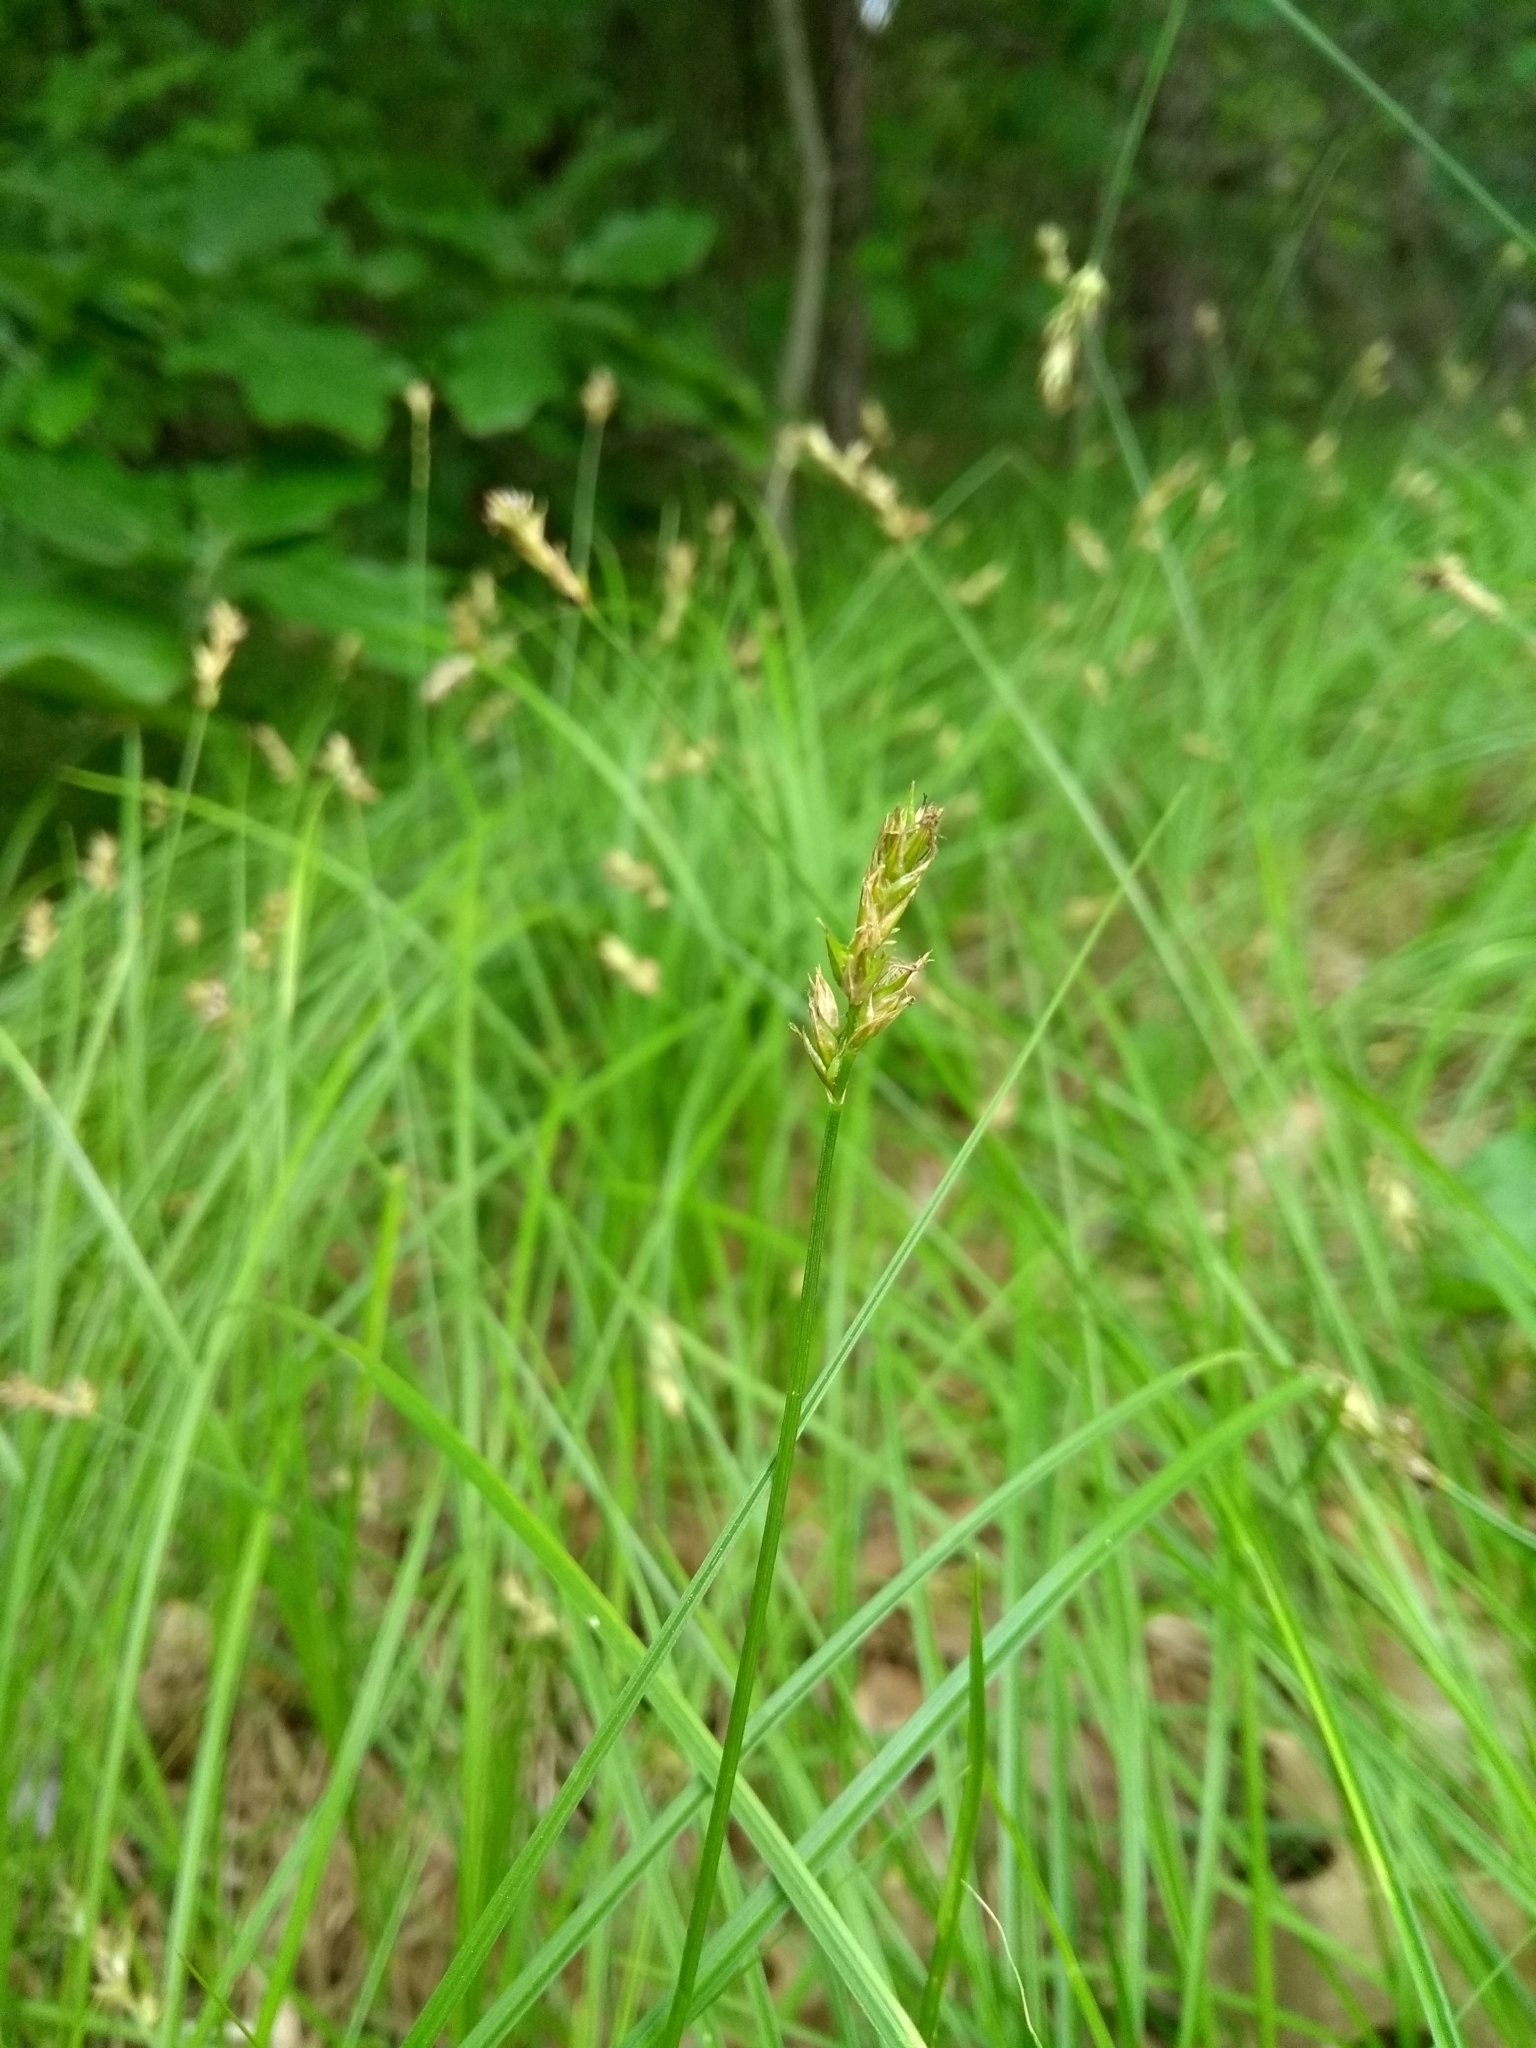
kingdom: Plantae
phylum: Tracheophyta
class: Liliopsida
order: Poales
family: Cyperaceae
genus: Carex
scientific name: Carex siccata
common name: Dry sedge
